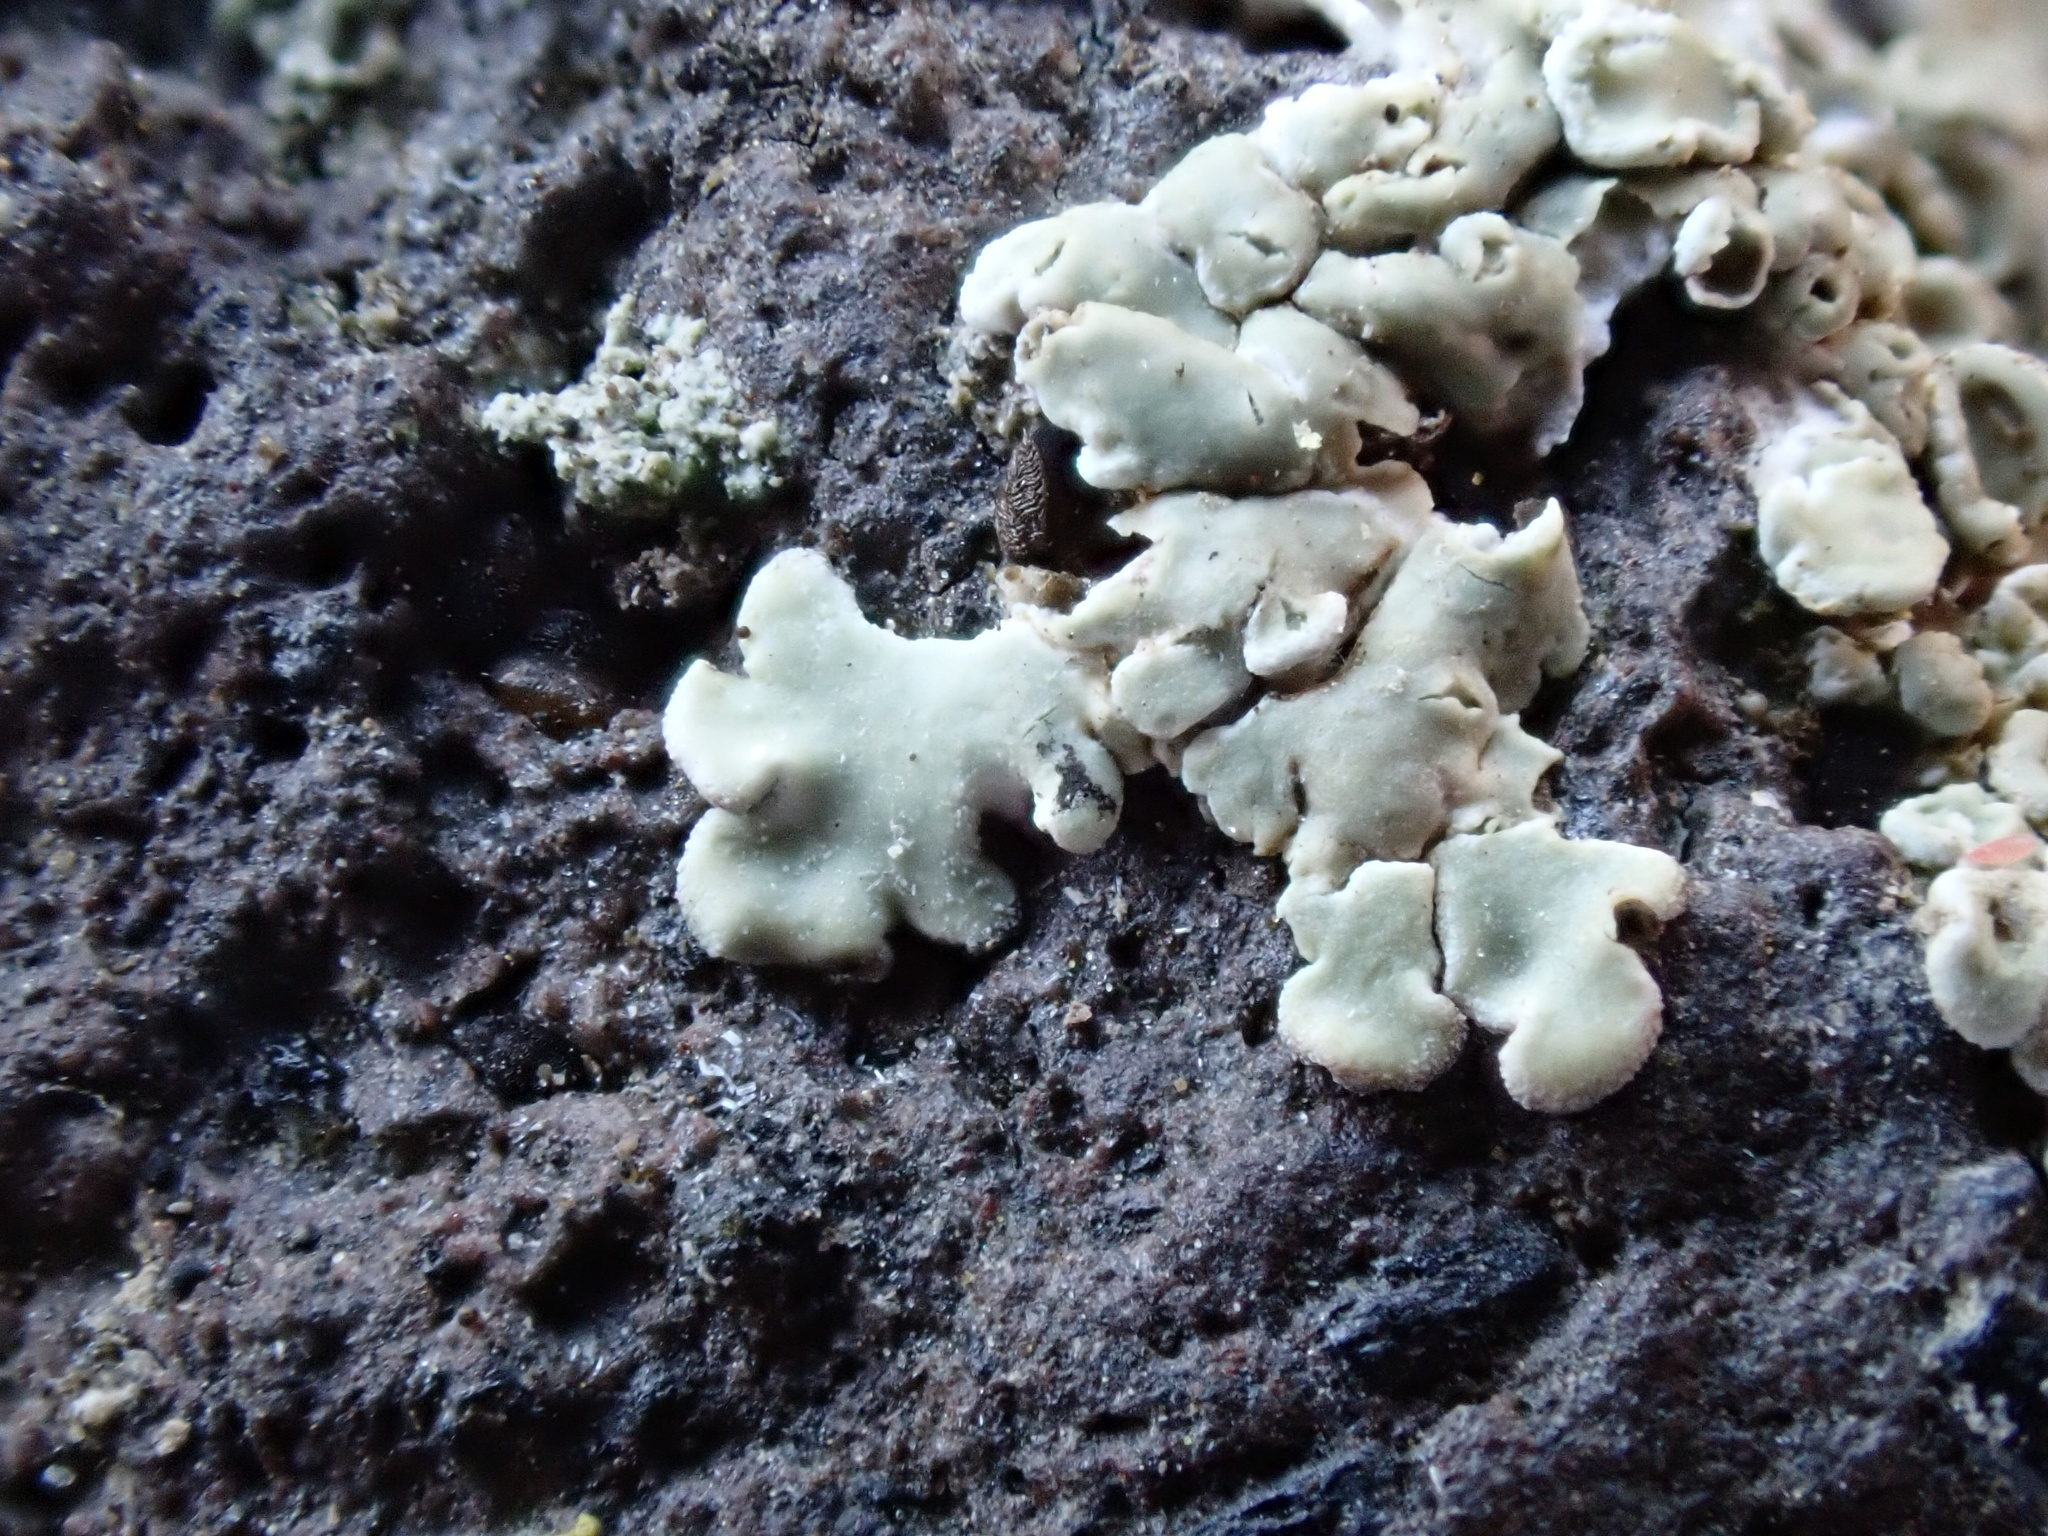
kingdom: Fungi
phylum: Ascomycota
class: Lecanoromycetes
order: Lecanorales
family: Lecanoraceae
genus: Protoparmeliopsis
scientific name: Protoparmeliopsis muralis
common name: Stonewall rim lichen
